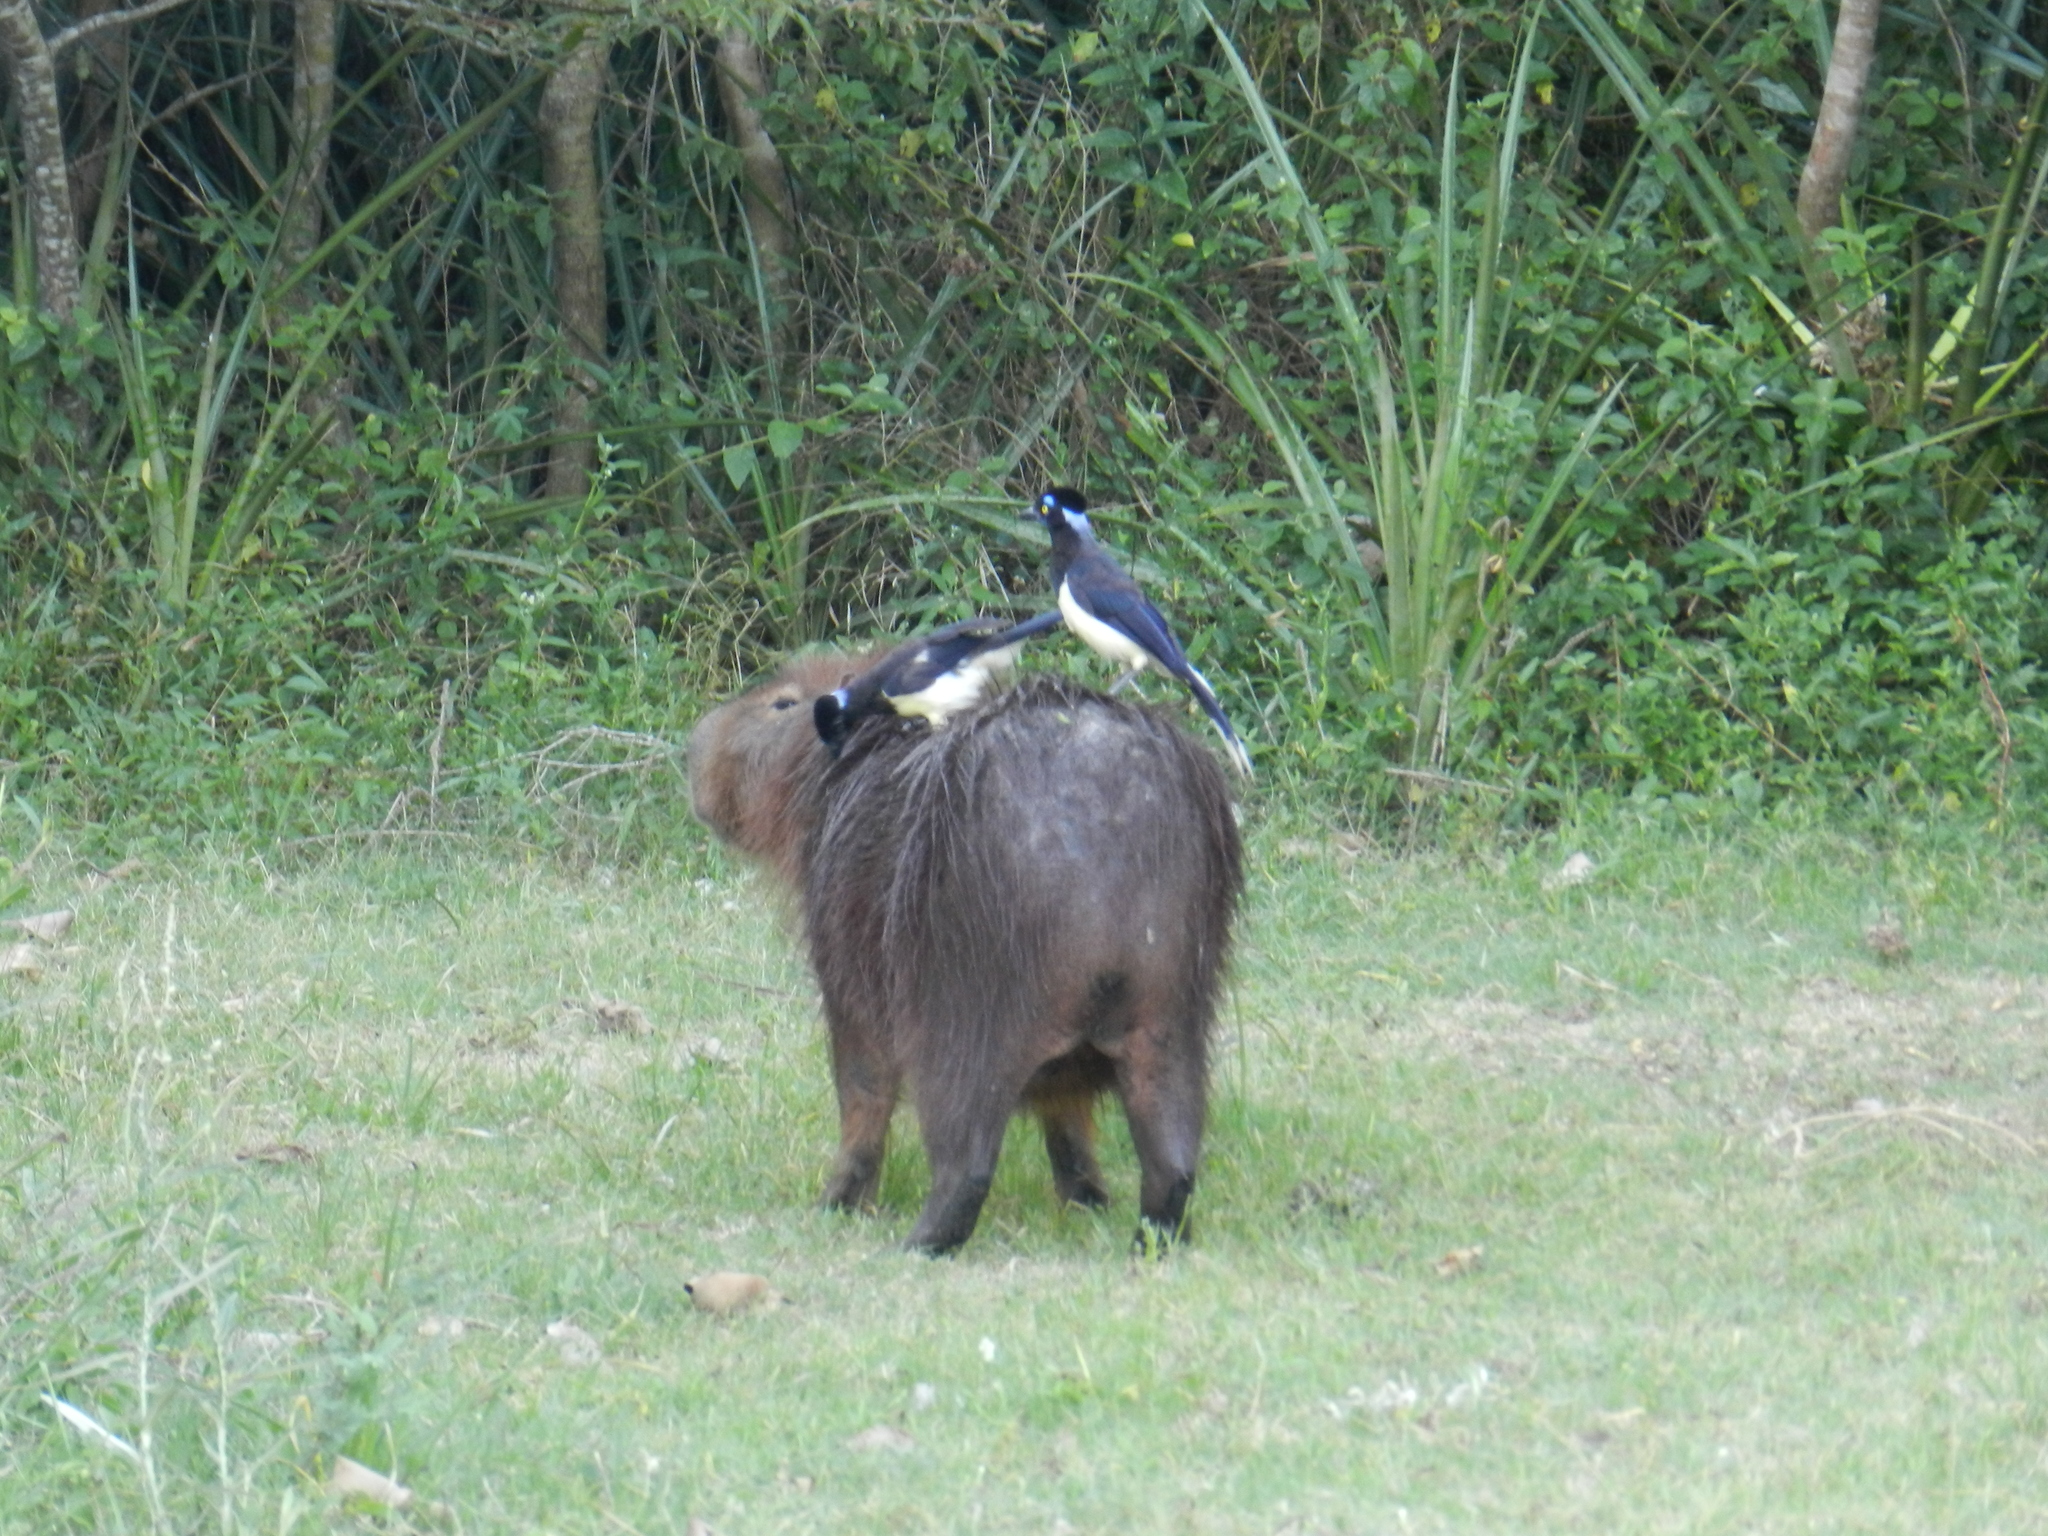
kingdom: Animalia
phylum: Chordata
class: Mammalia
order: Rodentia
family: Caviidae
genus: Hydrochoerus
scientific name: Hydrochoerus hydrochaeris
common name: Capybara
